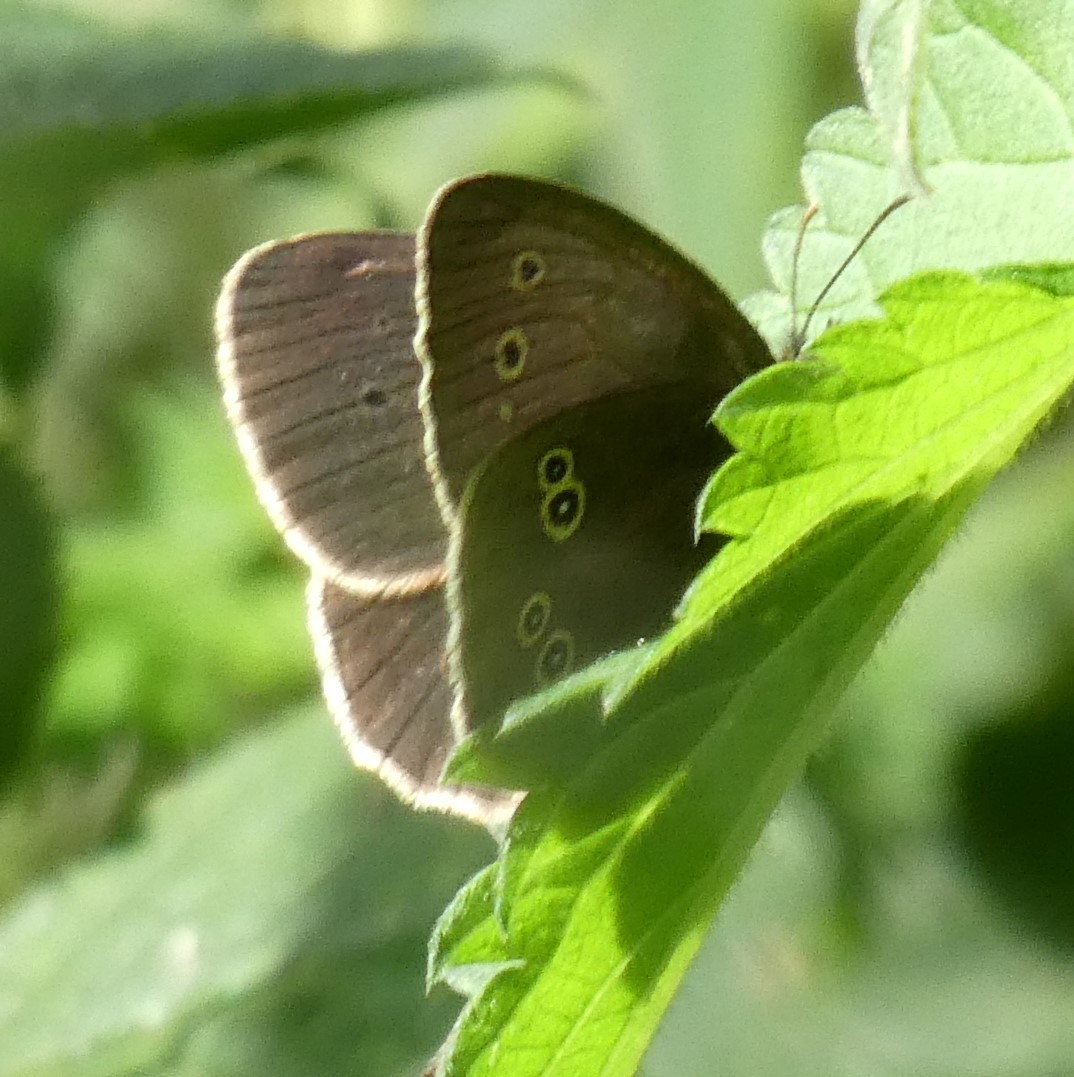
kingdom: Animalia
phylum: Arthropoda
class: Insecta
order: Lepidoptera
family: Nymphalidae
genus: Aphantopus
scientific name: Aphantopus hyperantus
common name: Ringlet
